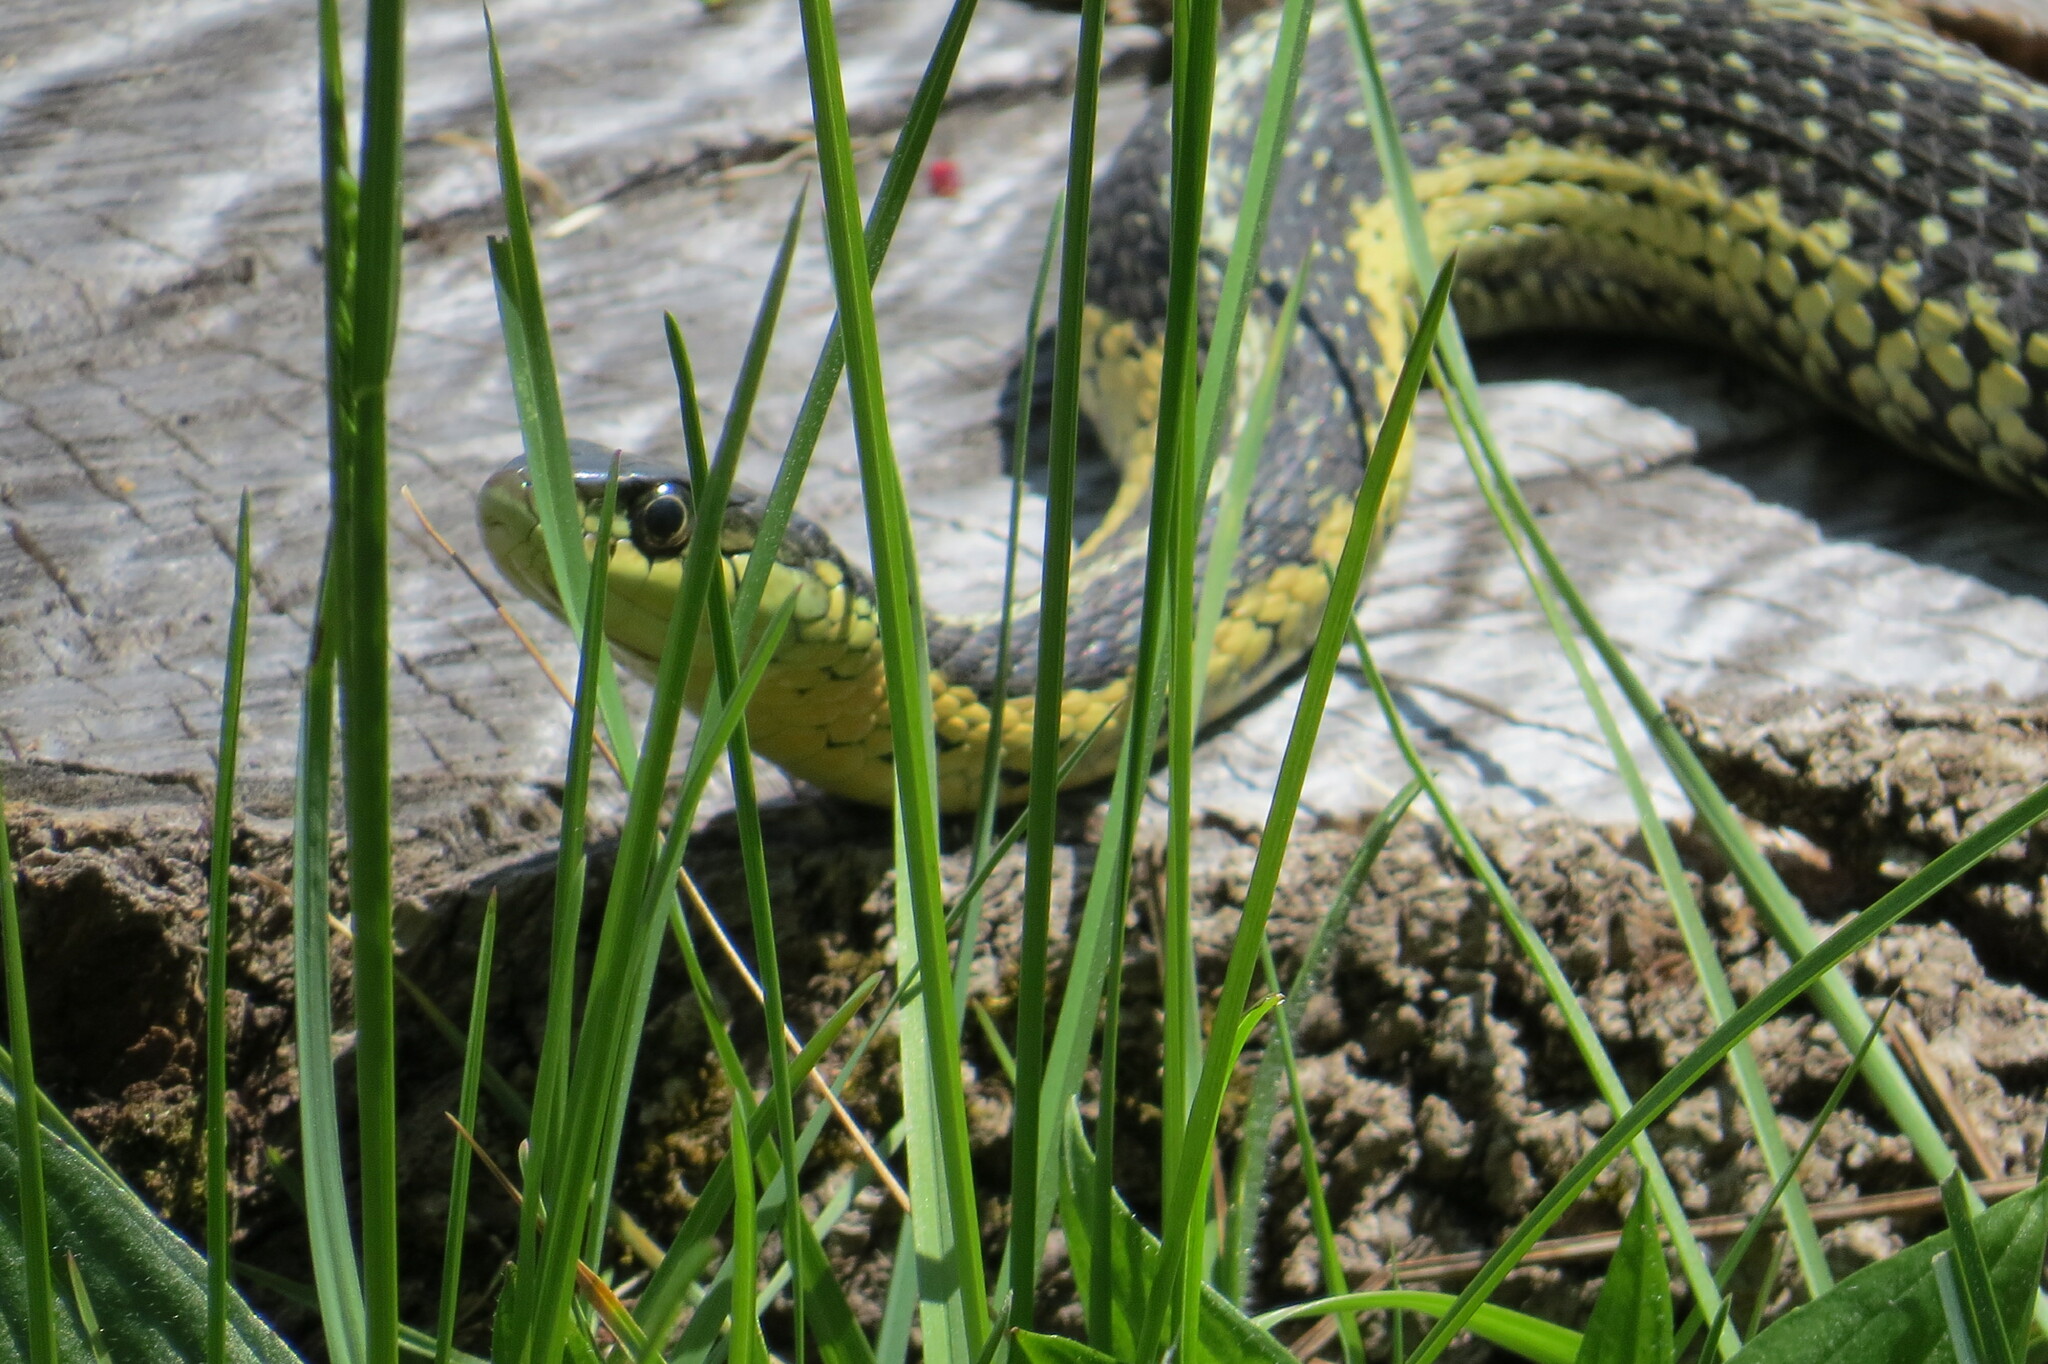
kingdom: Animalia
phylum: Chordata
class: Squamata
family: Colubridae
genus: Thamnophis
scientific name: Thamnophis sirtalis
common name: Common garter snake
